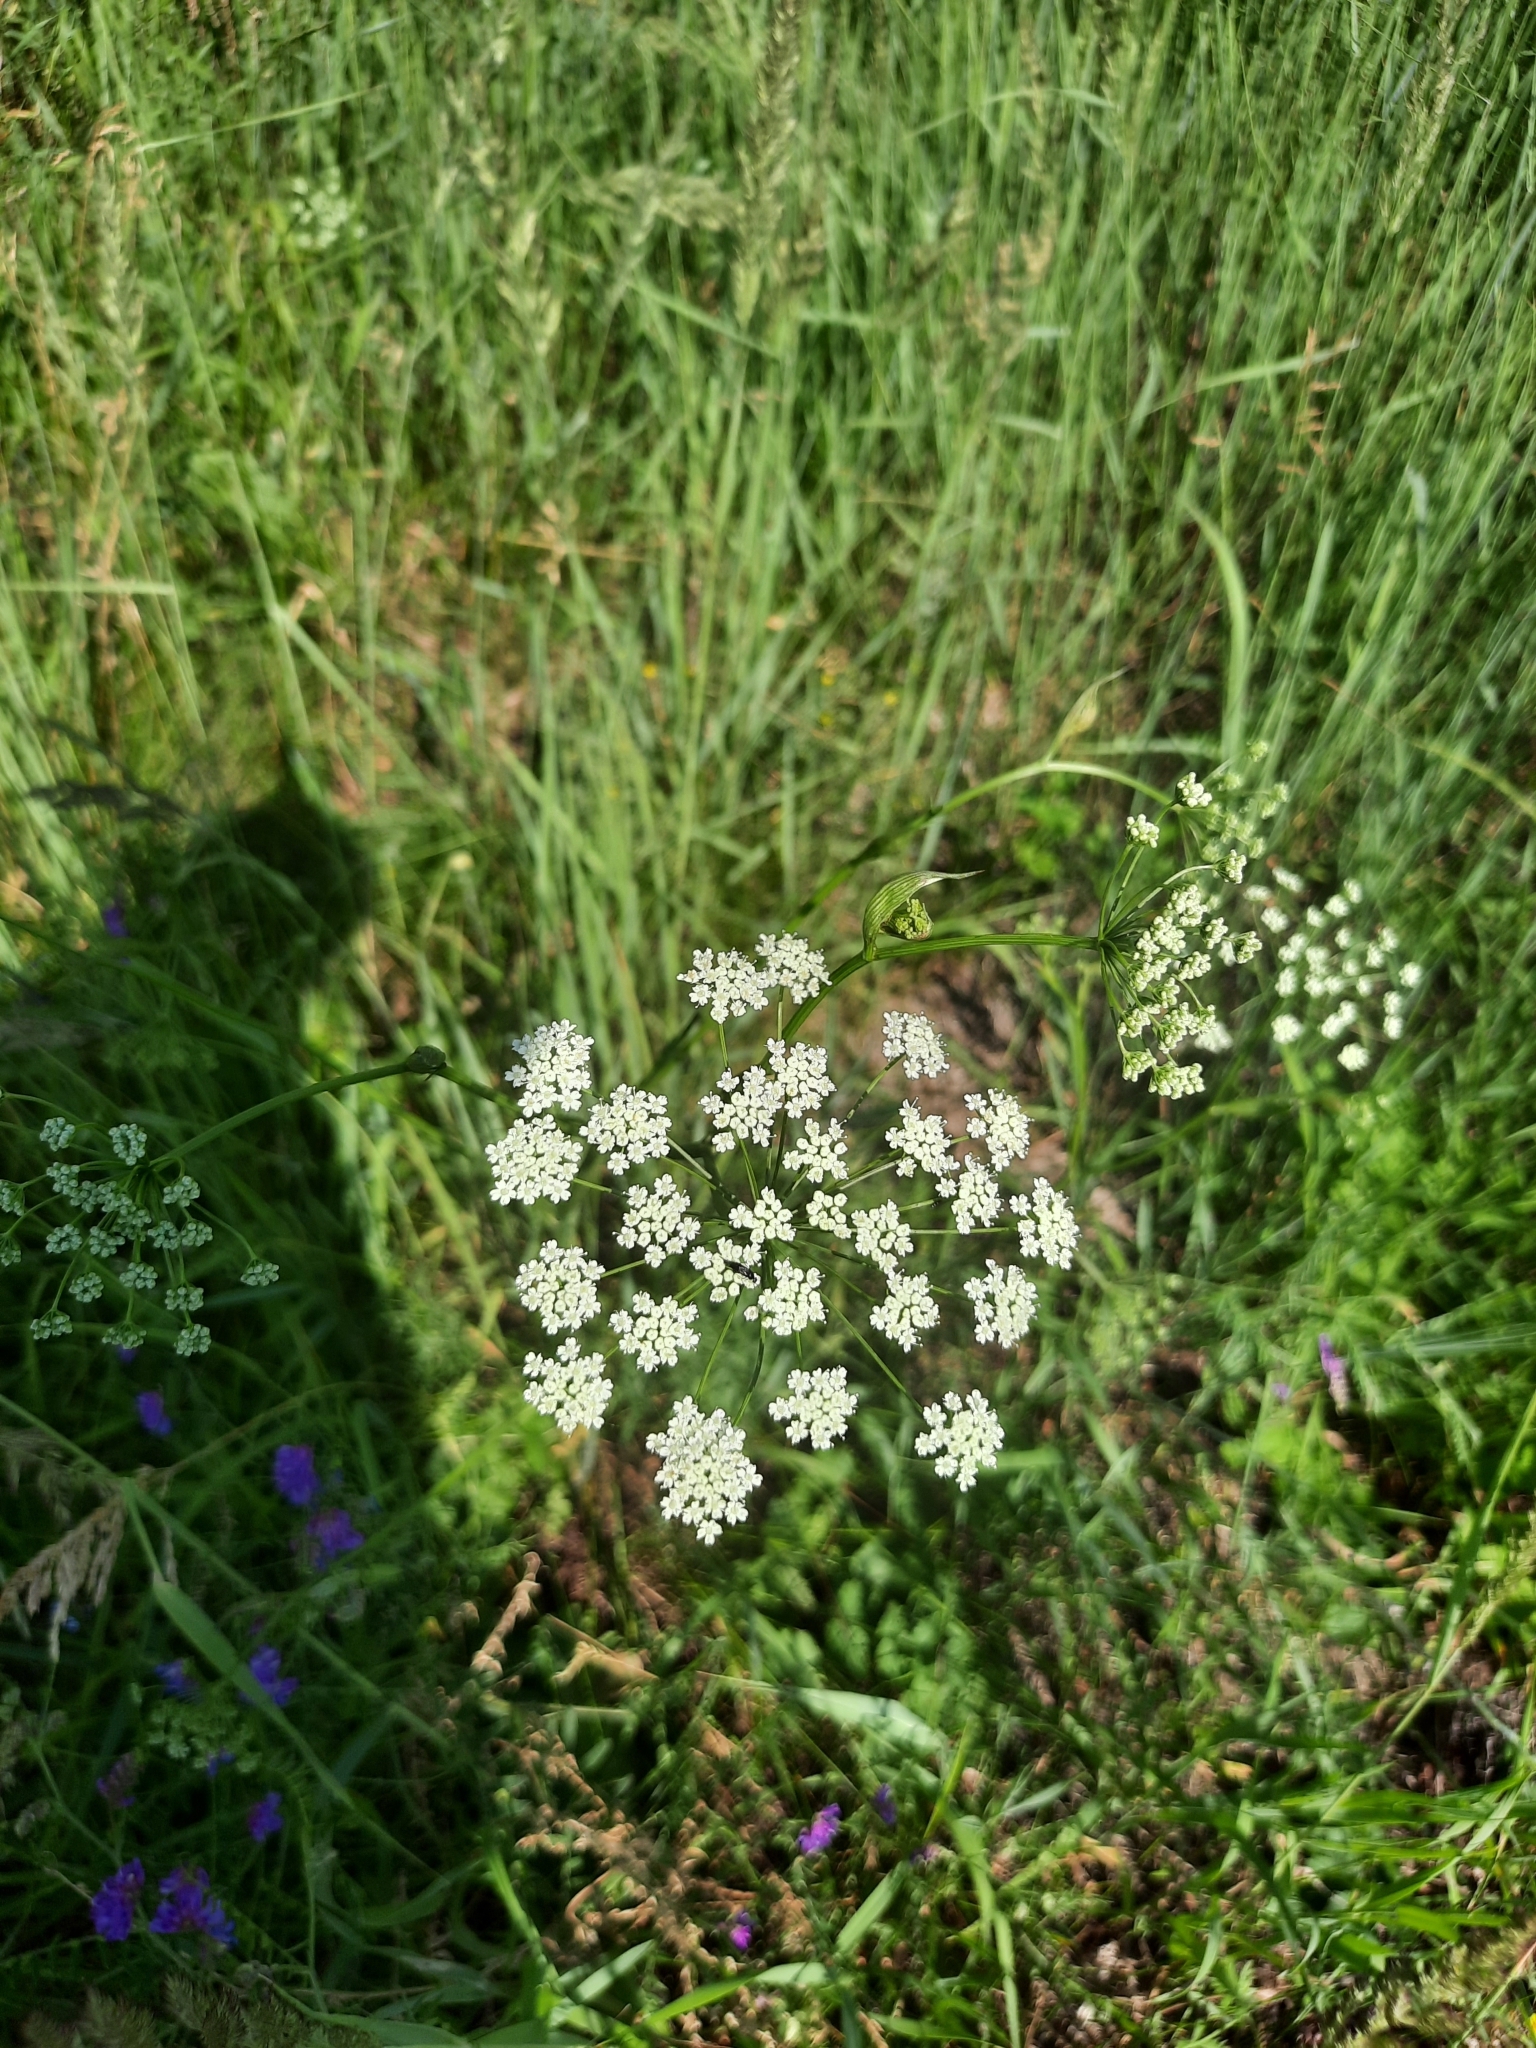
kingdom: Plantae
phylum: Tracheophyta
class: Magnoliopsida
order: Apiales
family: Apiaceae
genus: Pimpinella
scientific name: Pimpinella saxifraga
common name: Burnet-saxifrage
